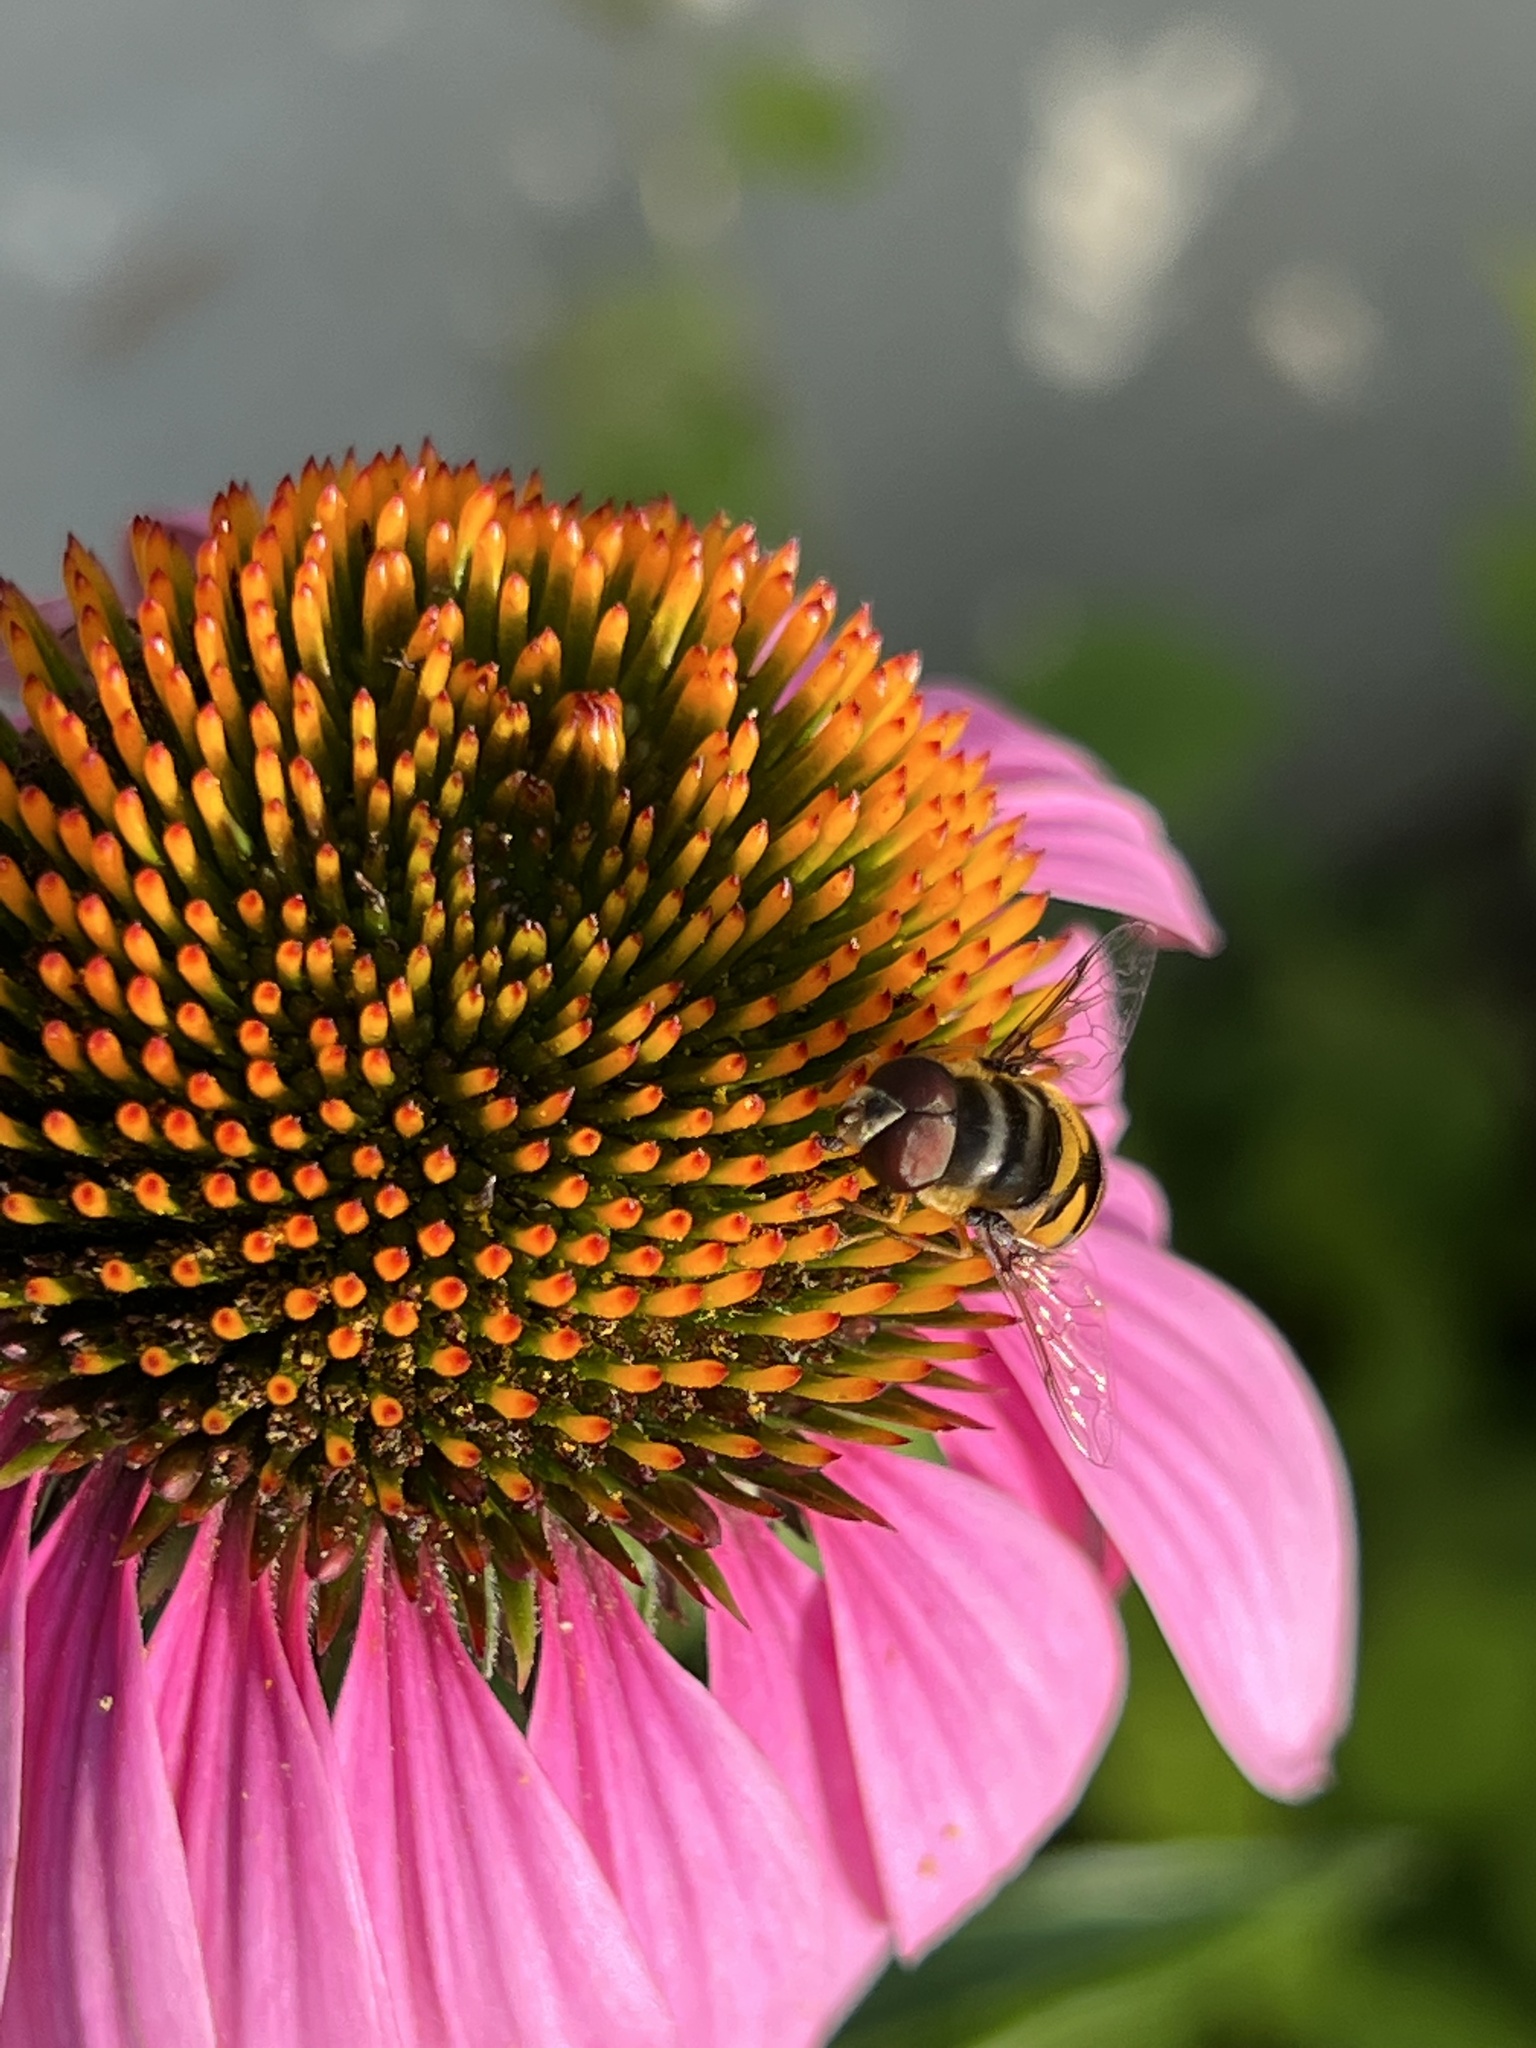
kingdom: Animalia
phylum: Arthropoda
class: Insecta
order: Diptera
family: Syrphidae
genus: Eristalis
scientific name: Eristalis transversa
